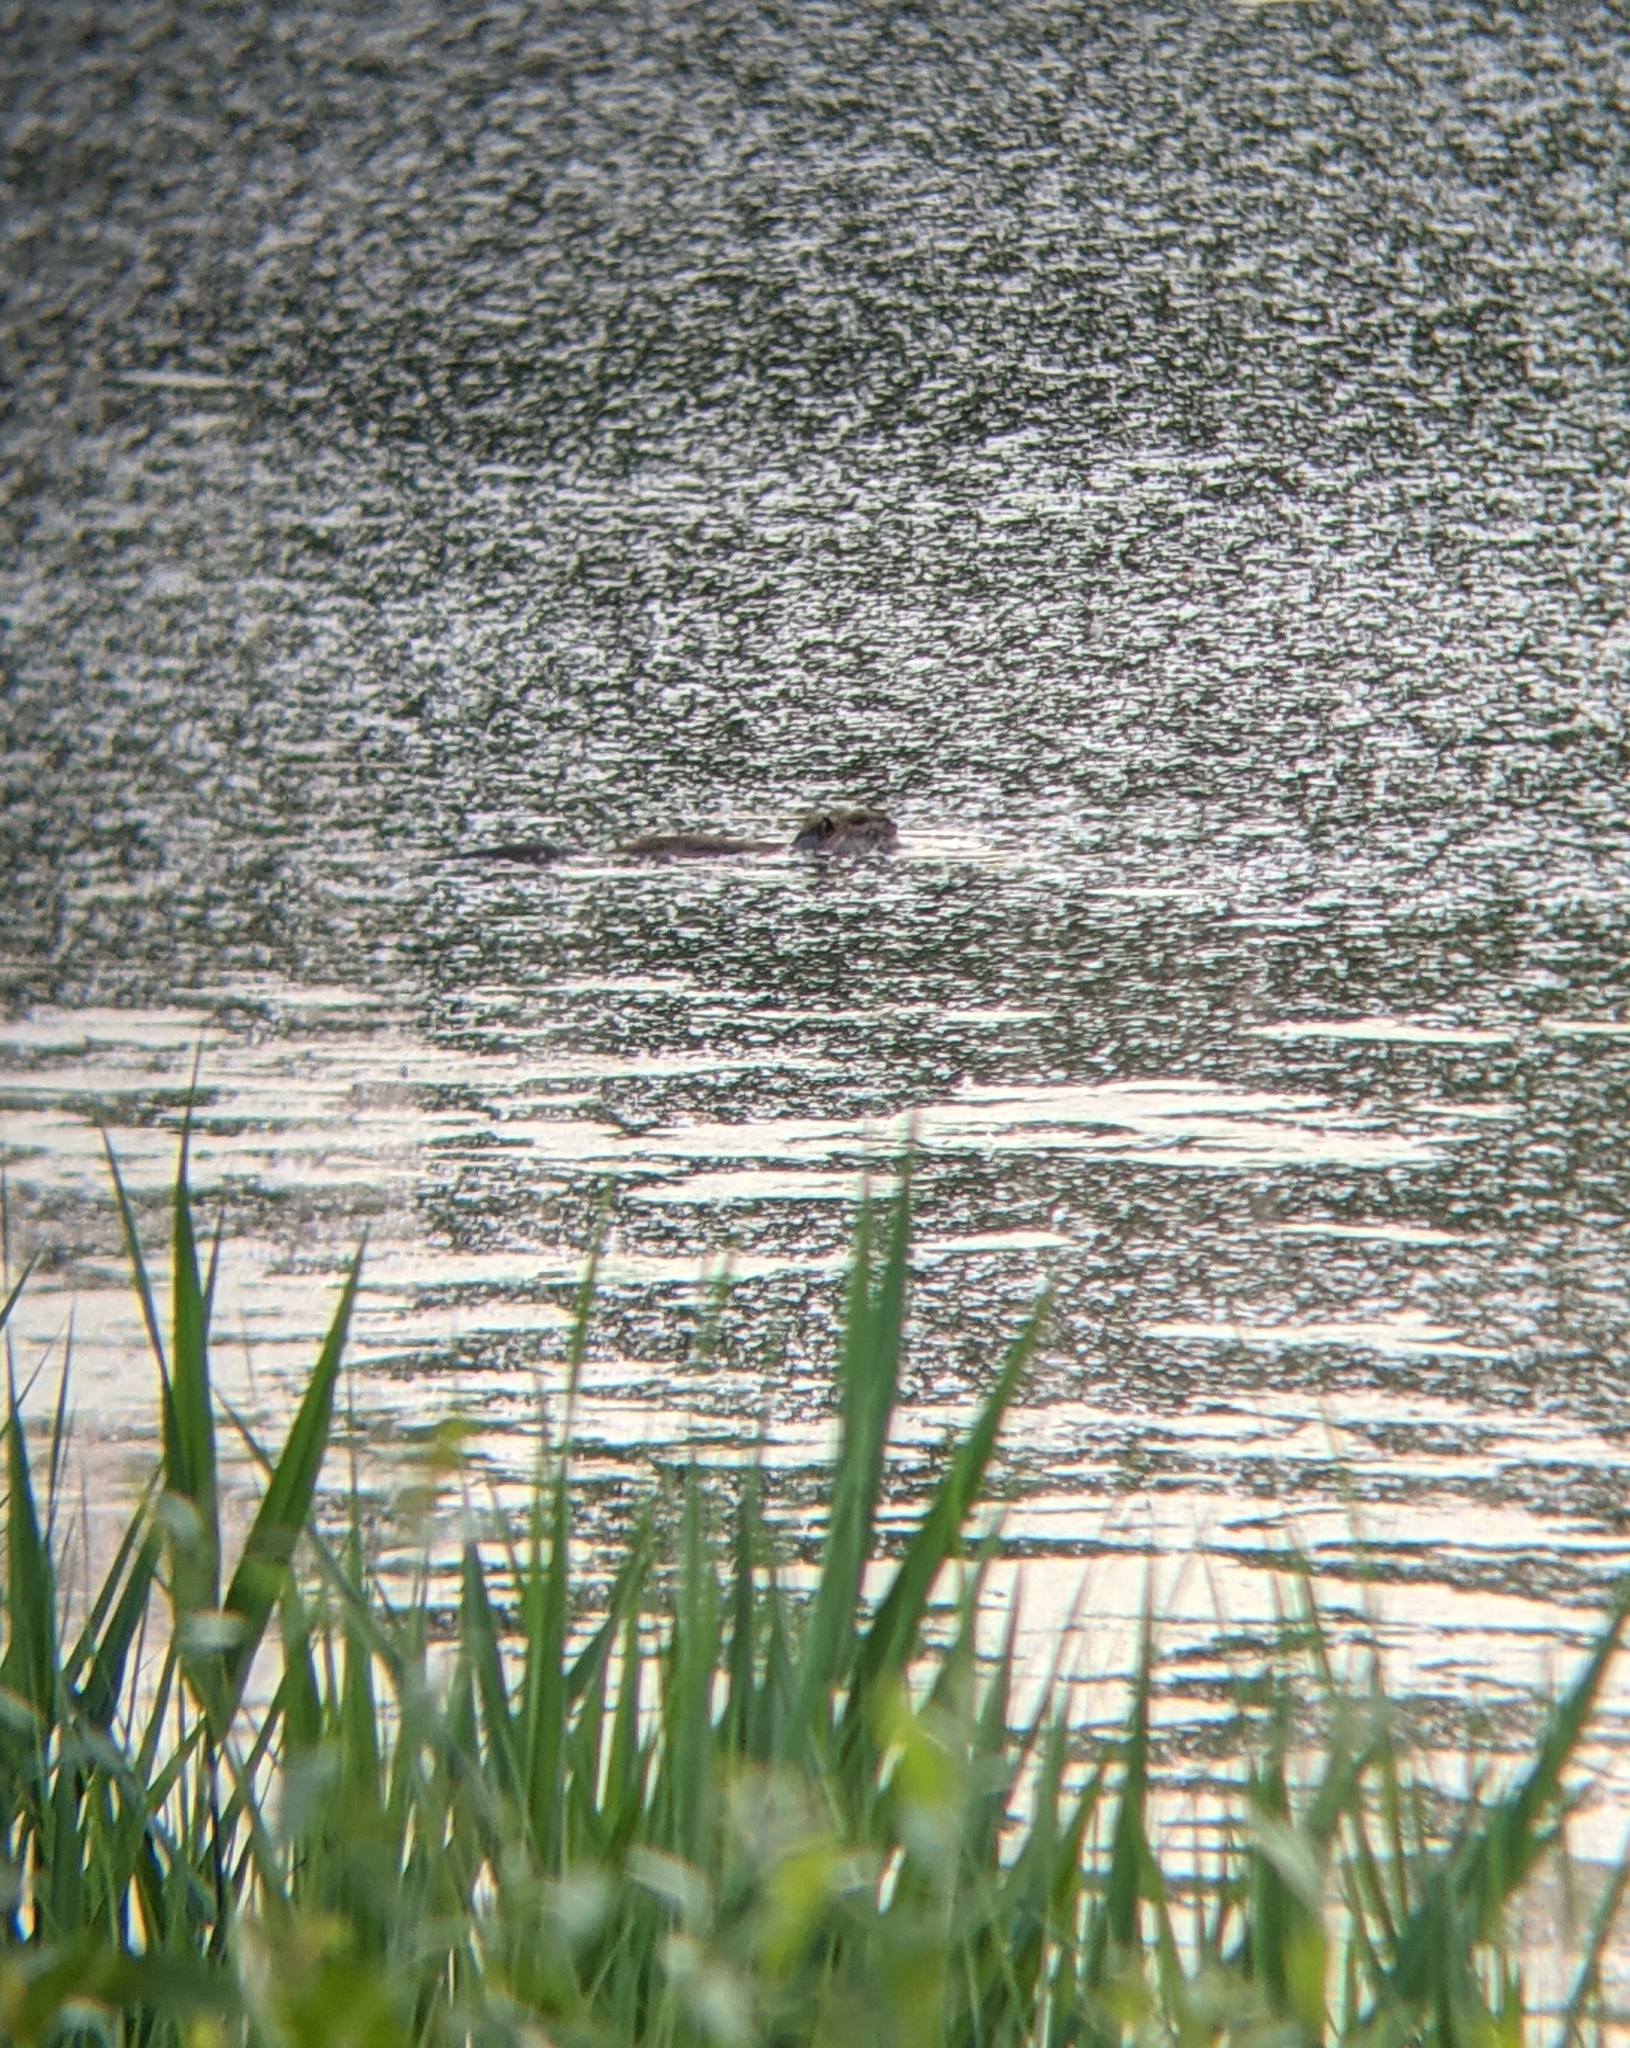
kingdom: Animalia
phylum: Chordata
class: Mammalia
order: Rodentia
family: Myocastoridae
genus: Myocastor
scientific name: Myocastor coypus
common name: Coypu
